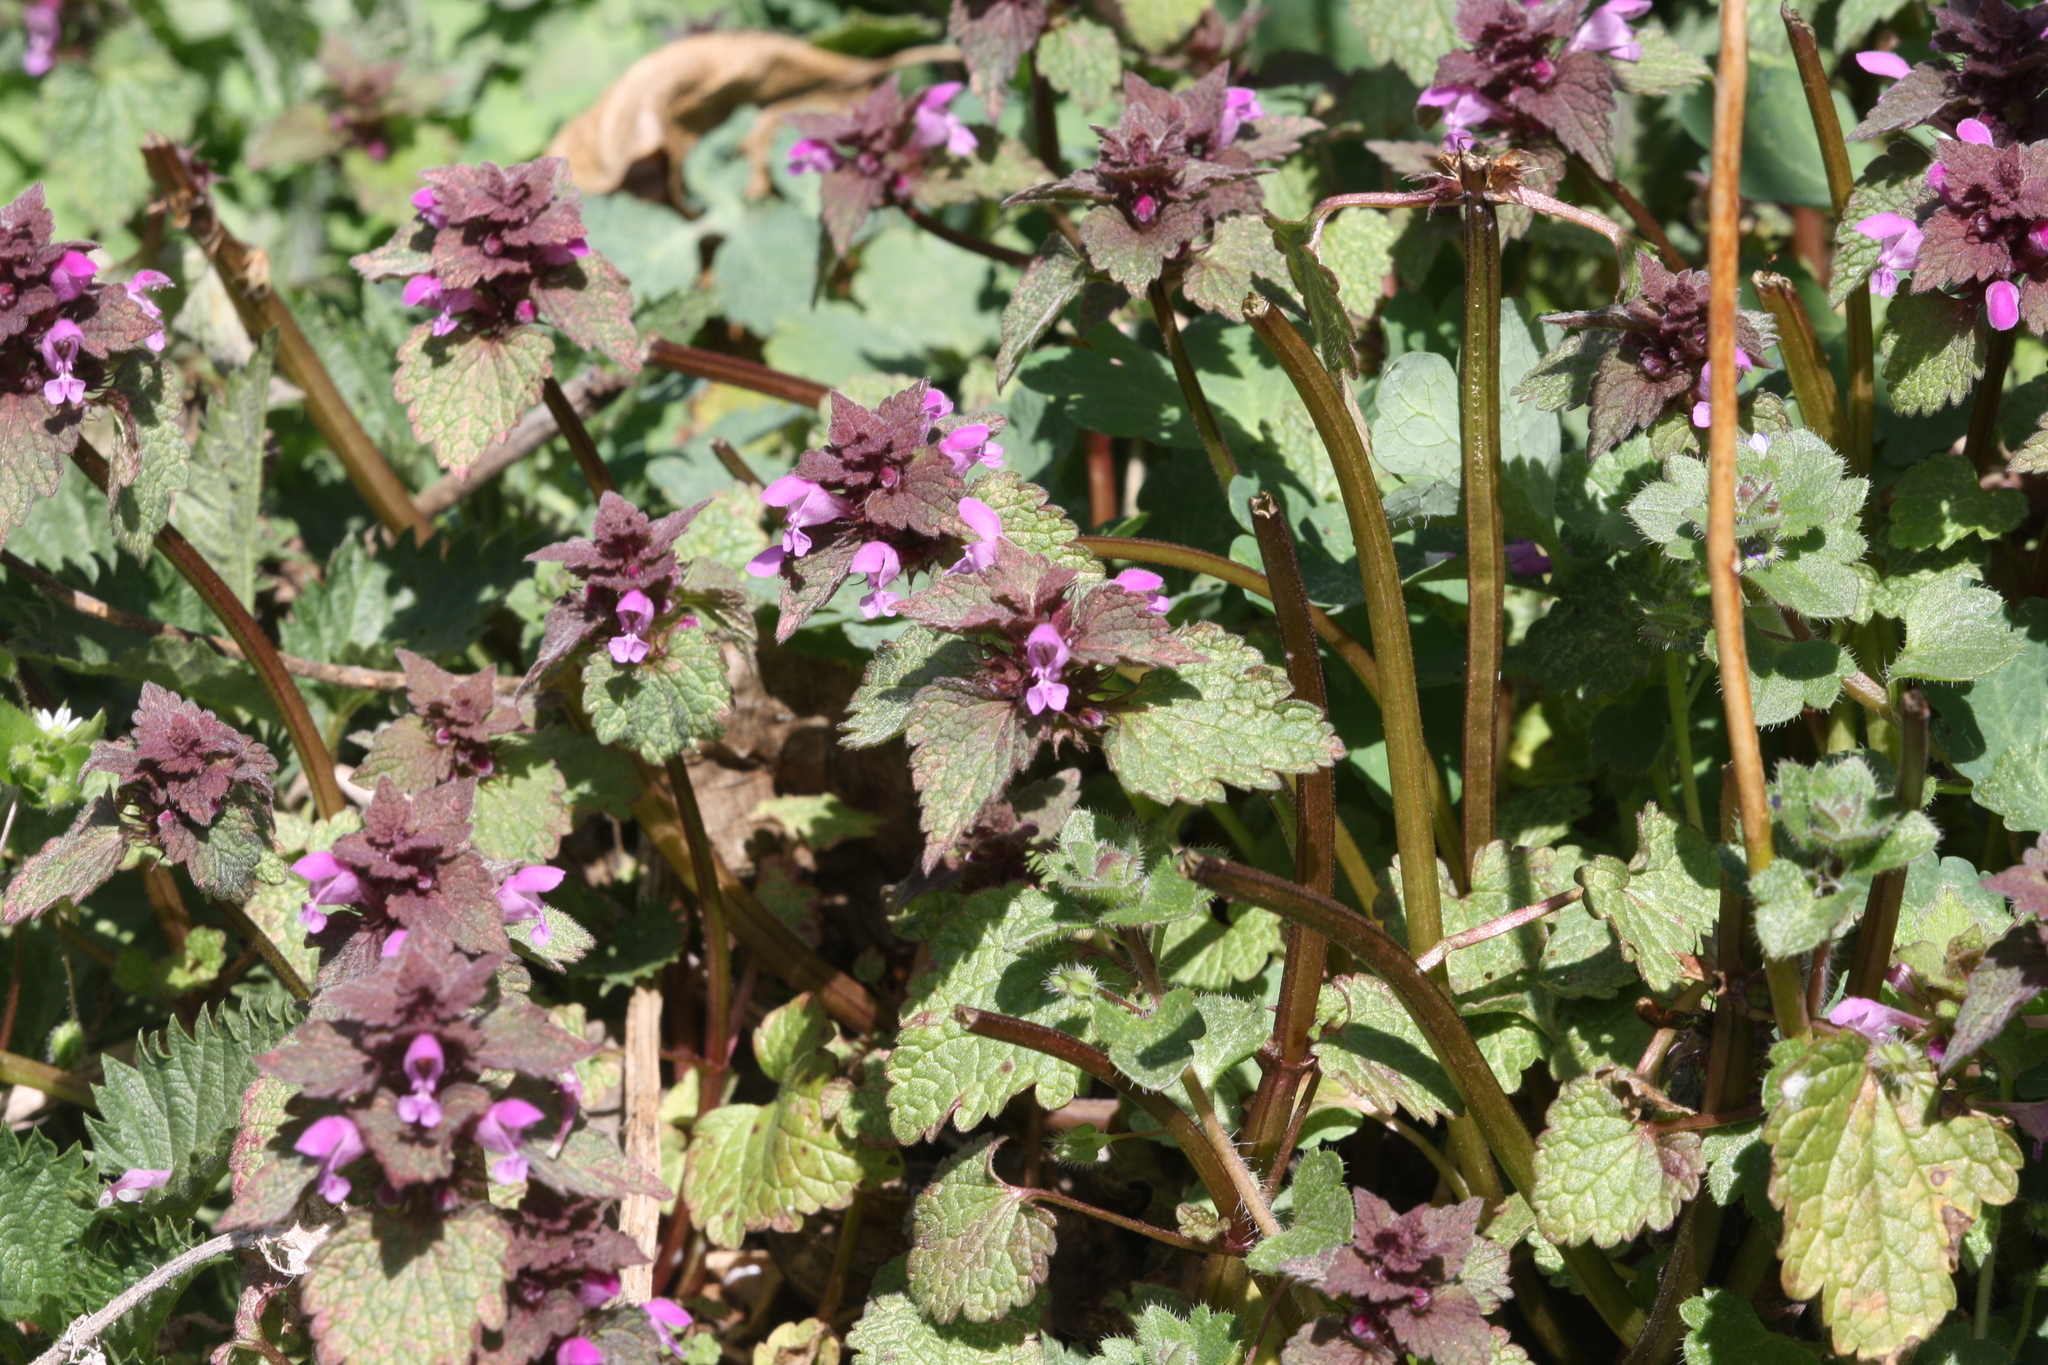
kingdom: Plantae
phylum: Tracheophyta
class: Magnoliopsida
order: Lamiales
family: Lamiaceae
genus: Lamium
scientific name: Lamium purpureum
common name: Red dead-nettle
